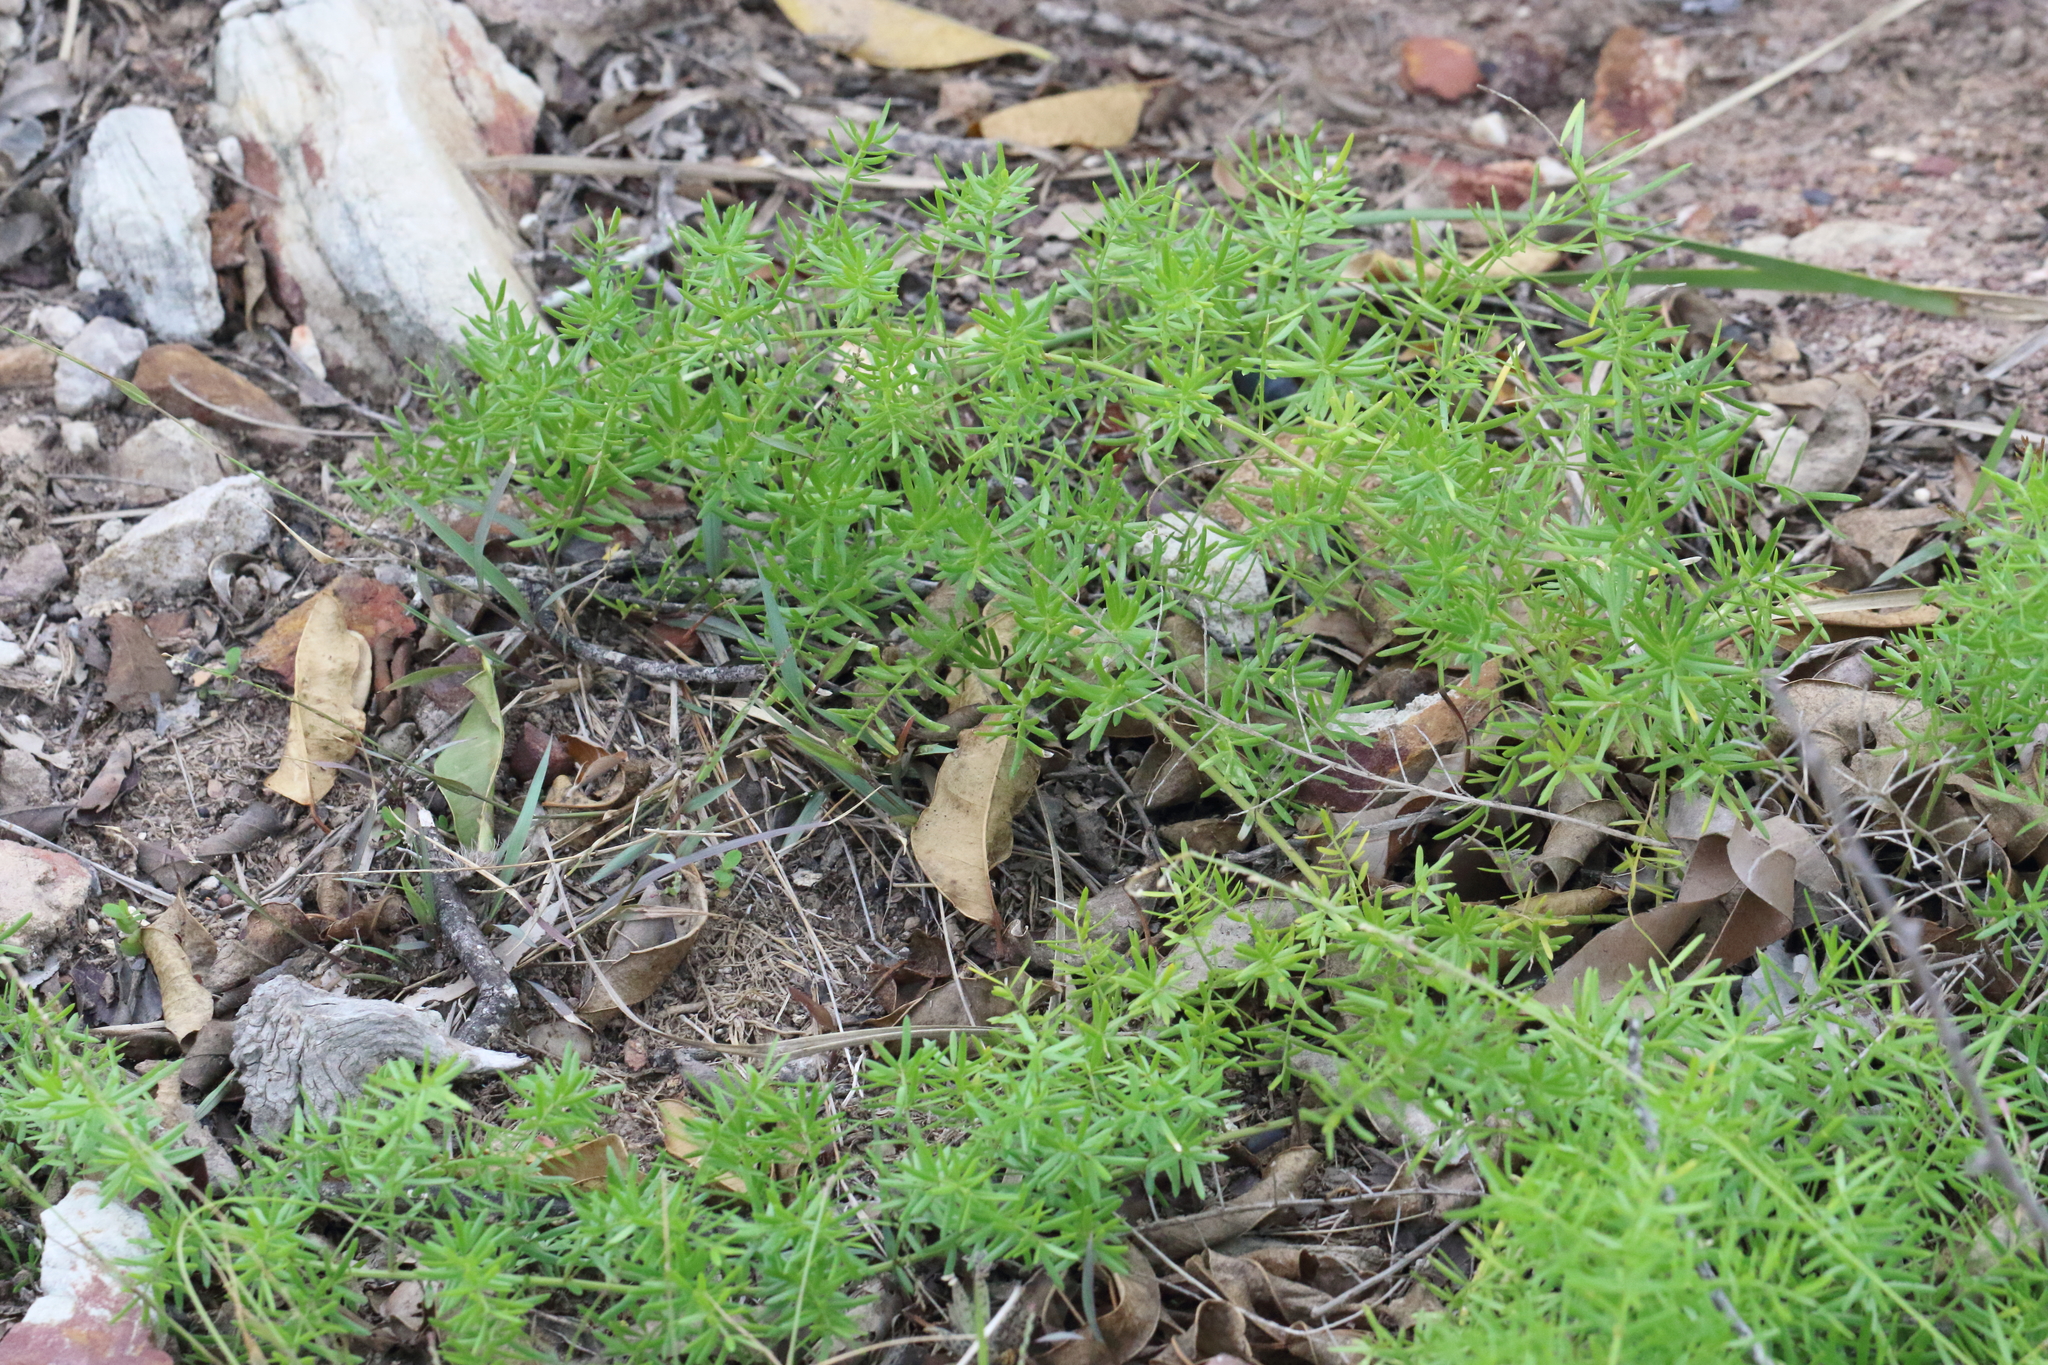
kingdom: Plantae
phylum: Tracheophyta
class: Liliopsida
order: Asparagales
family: Asparagaceae
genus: Asparagus
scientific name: Asparagus aethiopicus
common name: Sprenger's asparagus fern
